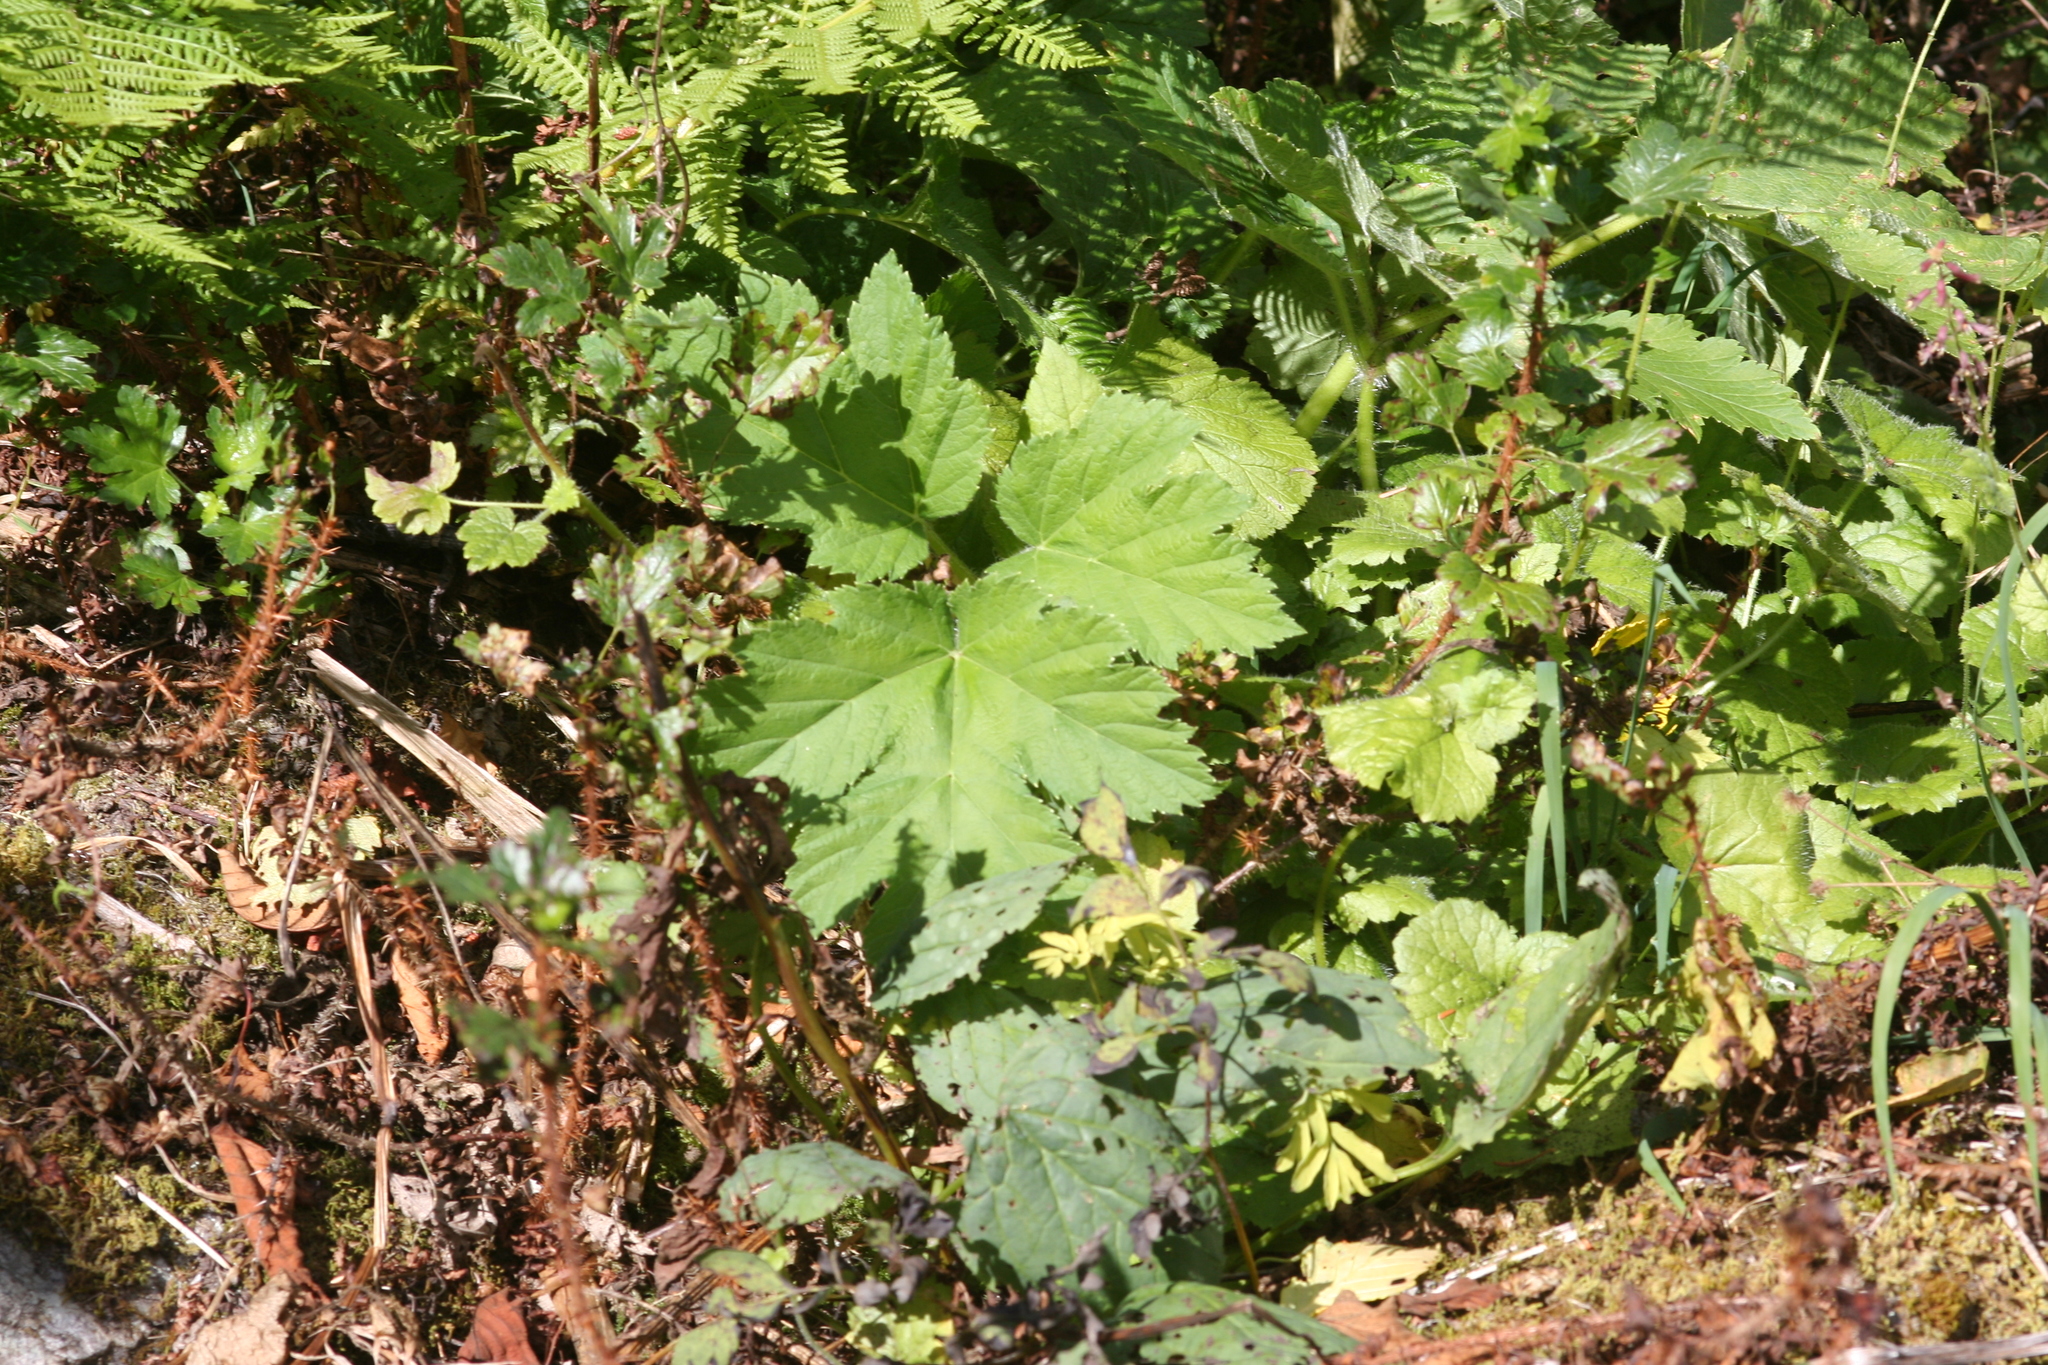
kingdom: Plantae
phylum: Tracheophyta
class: Magnoliopsida
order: Apiales
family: Apiaceae
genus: Heracleum
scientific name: Heracleum maximum
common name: American cow parsnip
